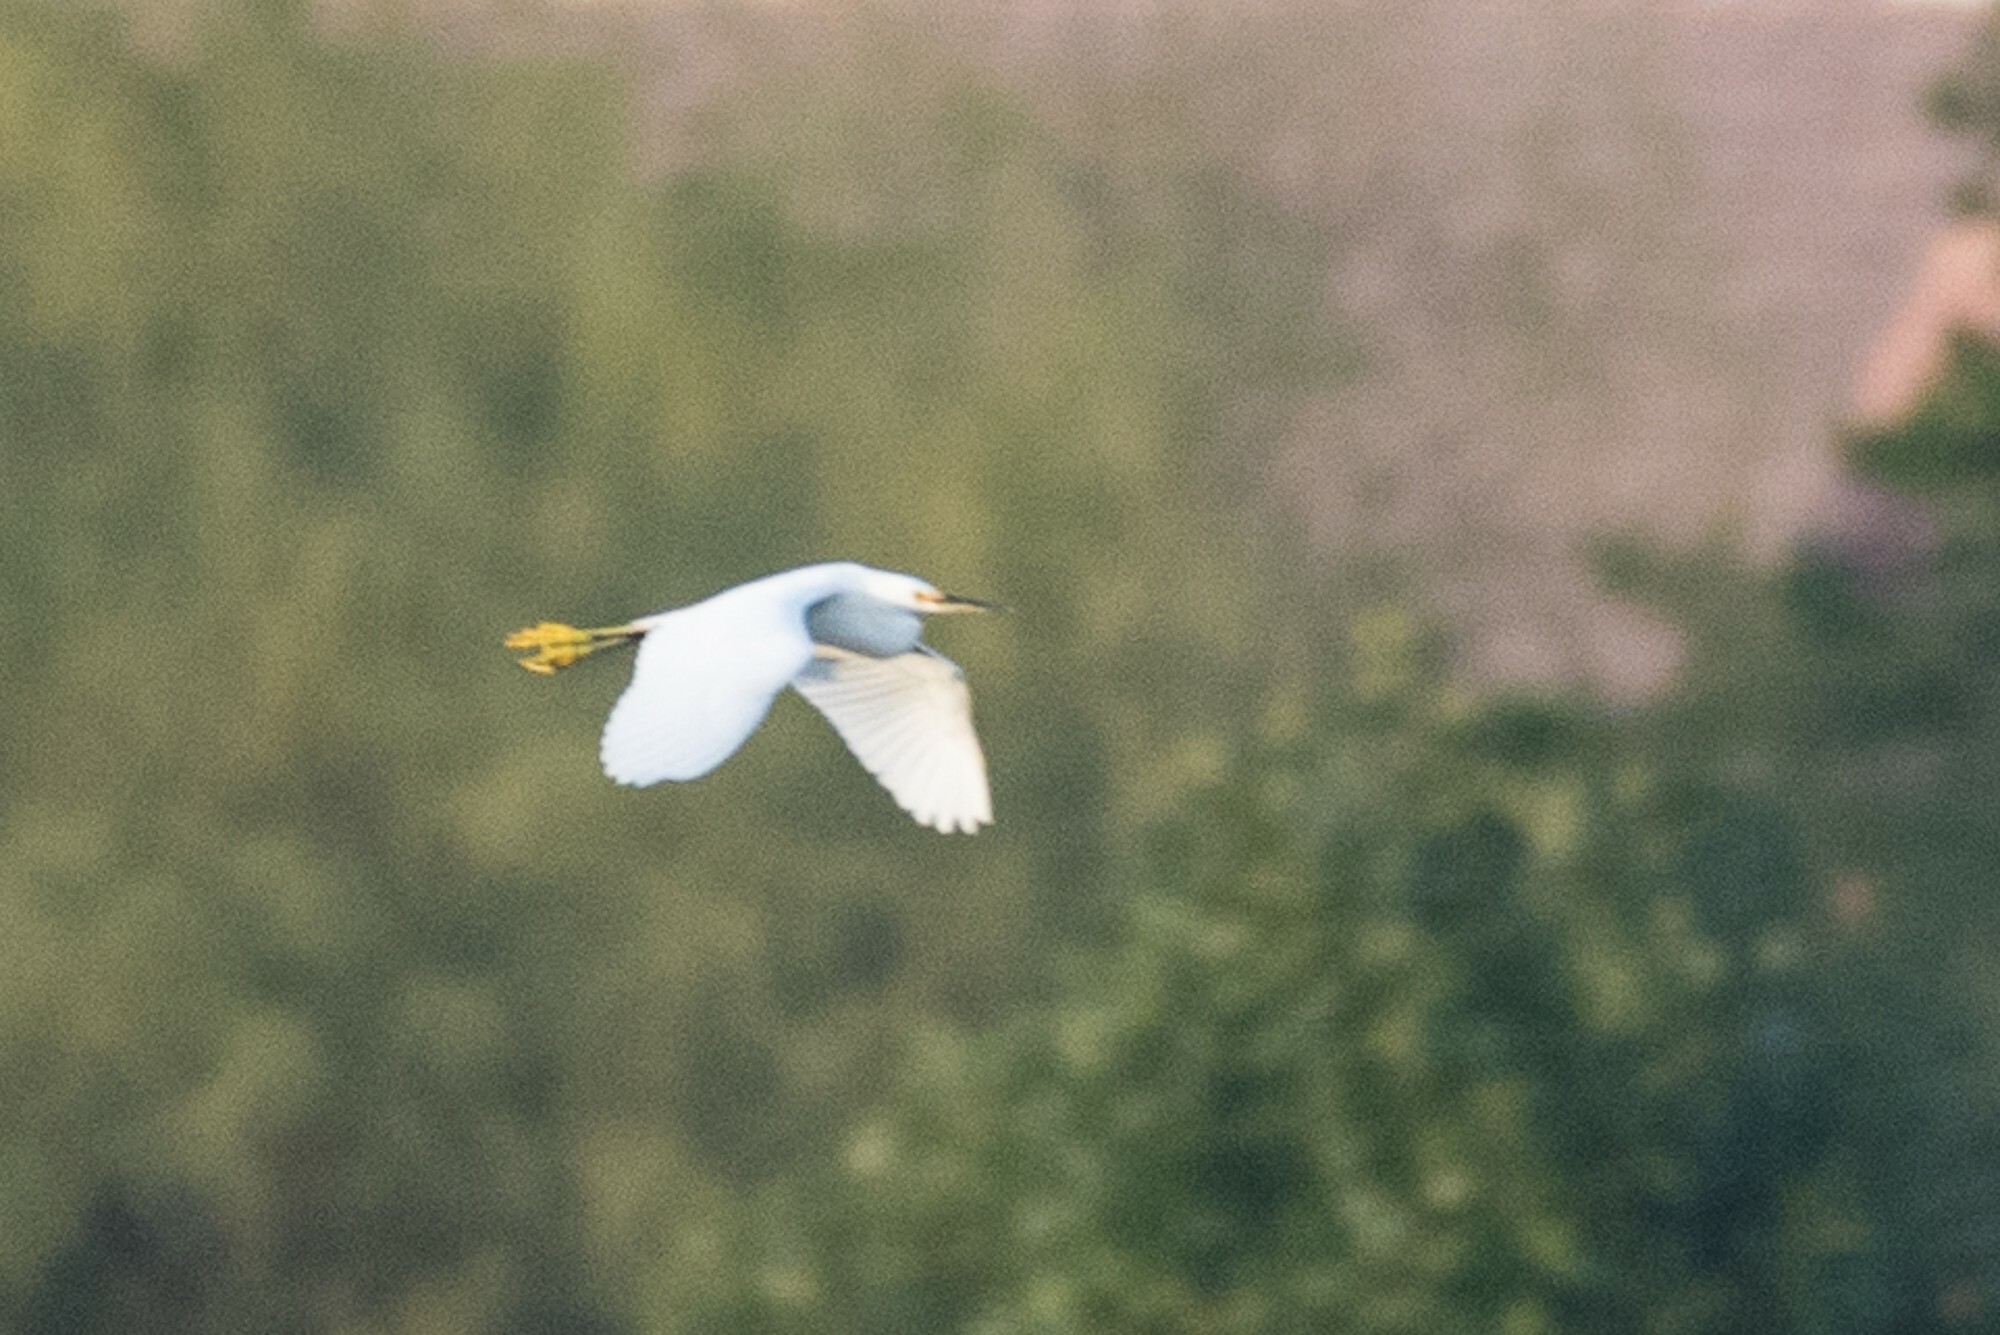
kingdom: Animalia
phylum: Chordata
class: Aves
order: Pelecaniformes
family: Ardeidae
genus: Egretta
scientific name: Egretta thula
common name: Snowy egret
